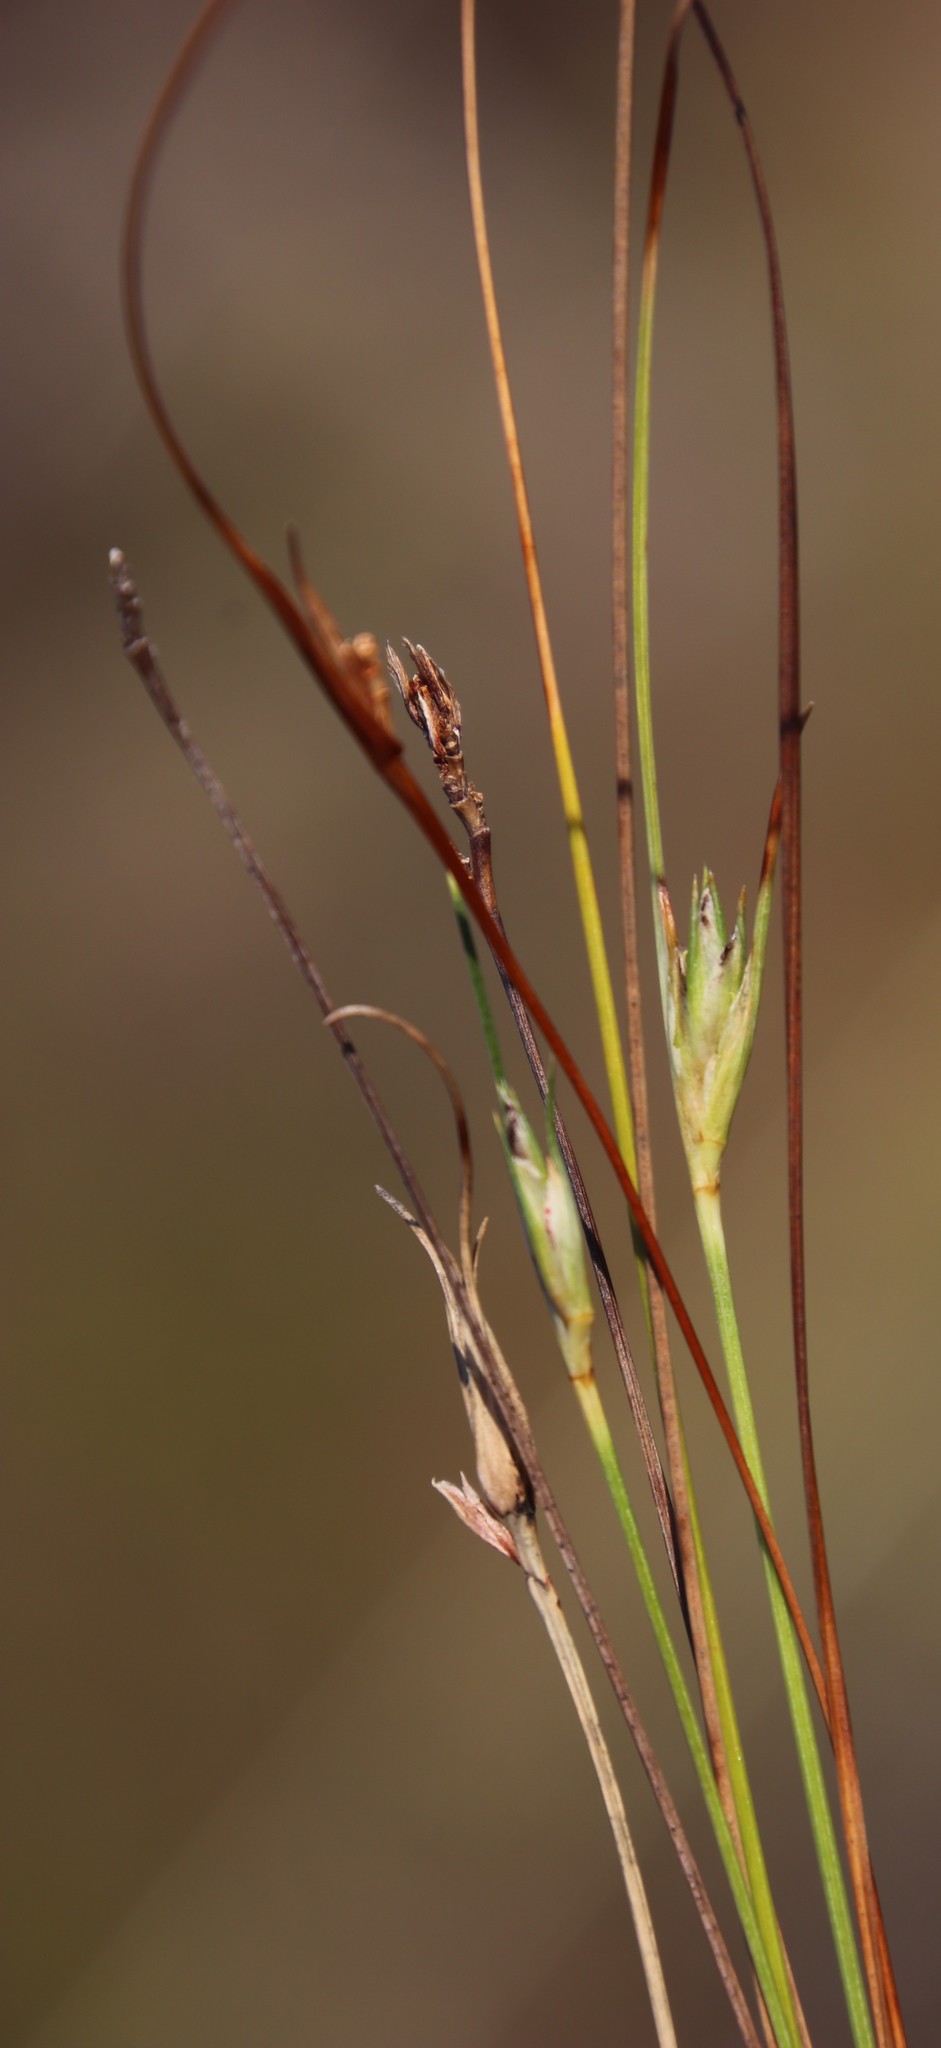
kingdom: Plantae
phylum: Tracheophyta
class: Liliopsida
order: Poales
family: Cyperaceae
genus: Ficinia
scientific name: Ficinia fastigiata
